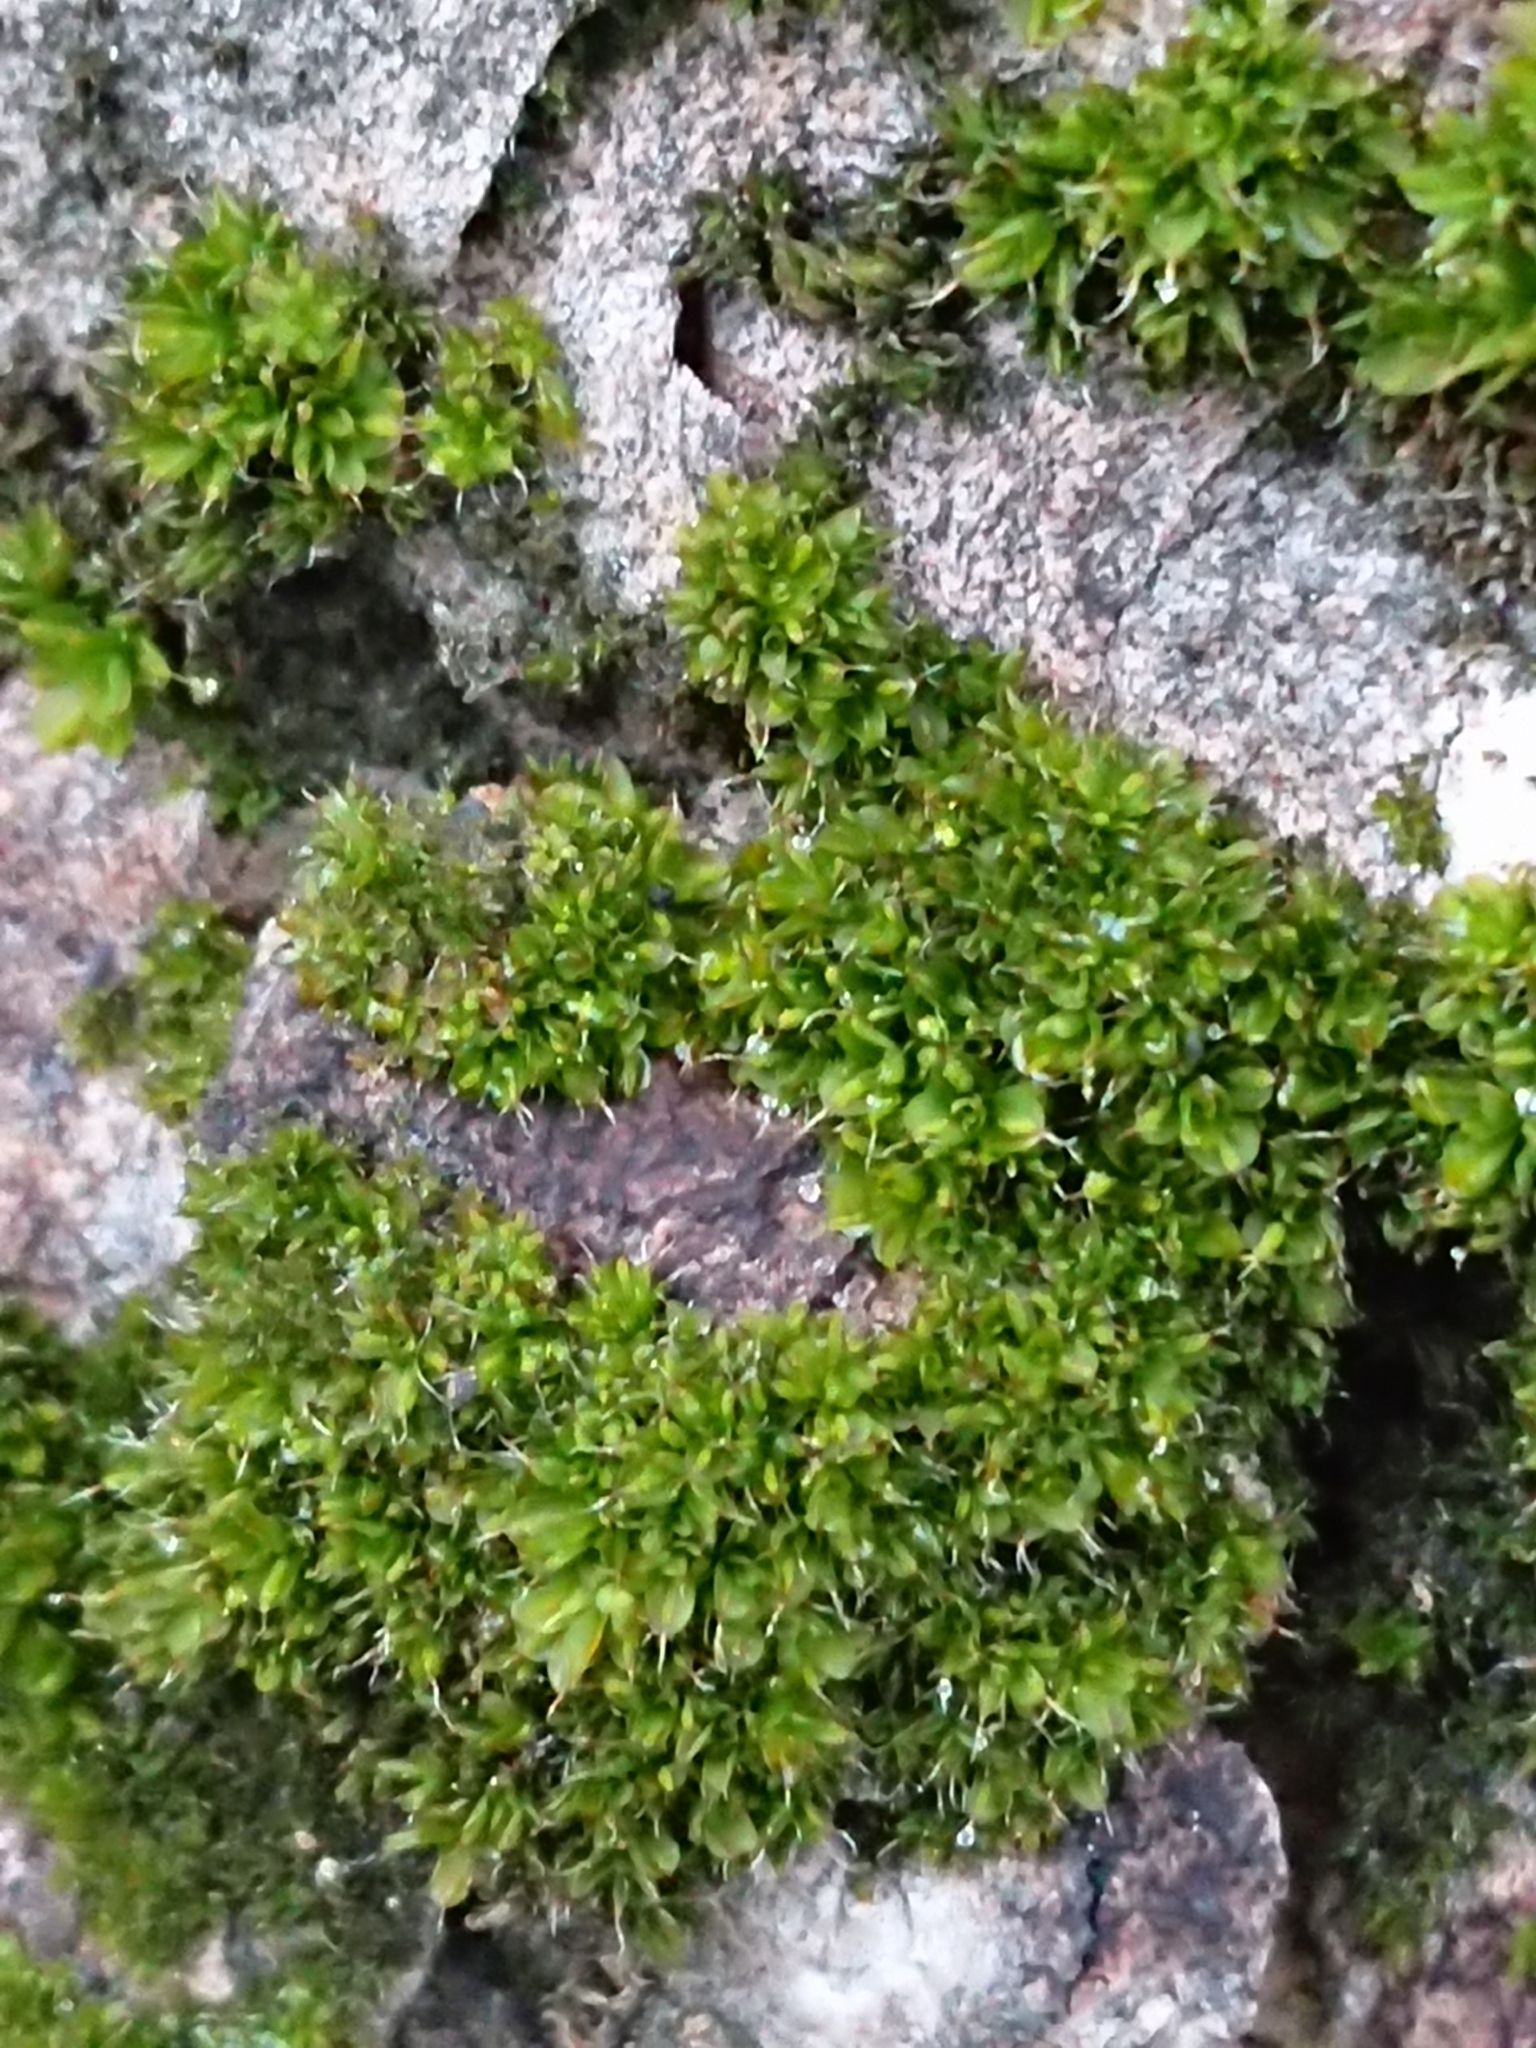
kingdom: Plantae
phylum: Bryophyta
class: Bryopsida
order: Pottiales
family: Pottiaceae
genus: Syntrichia
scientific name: Syntrichia papillosa
